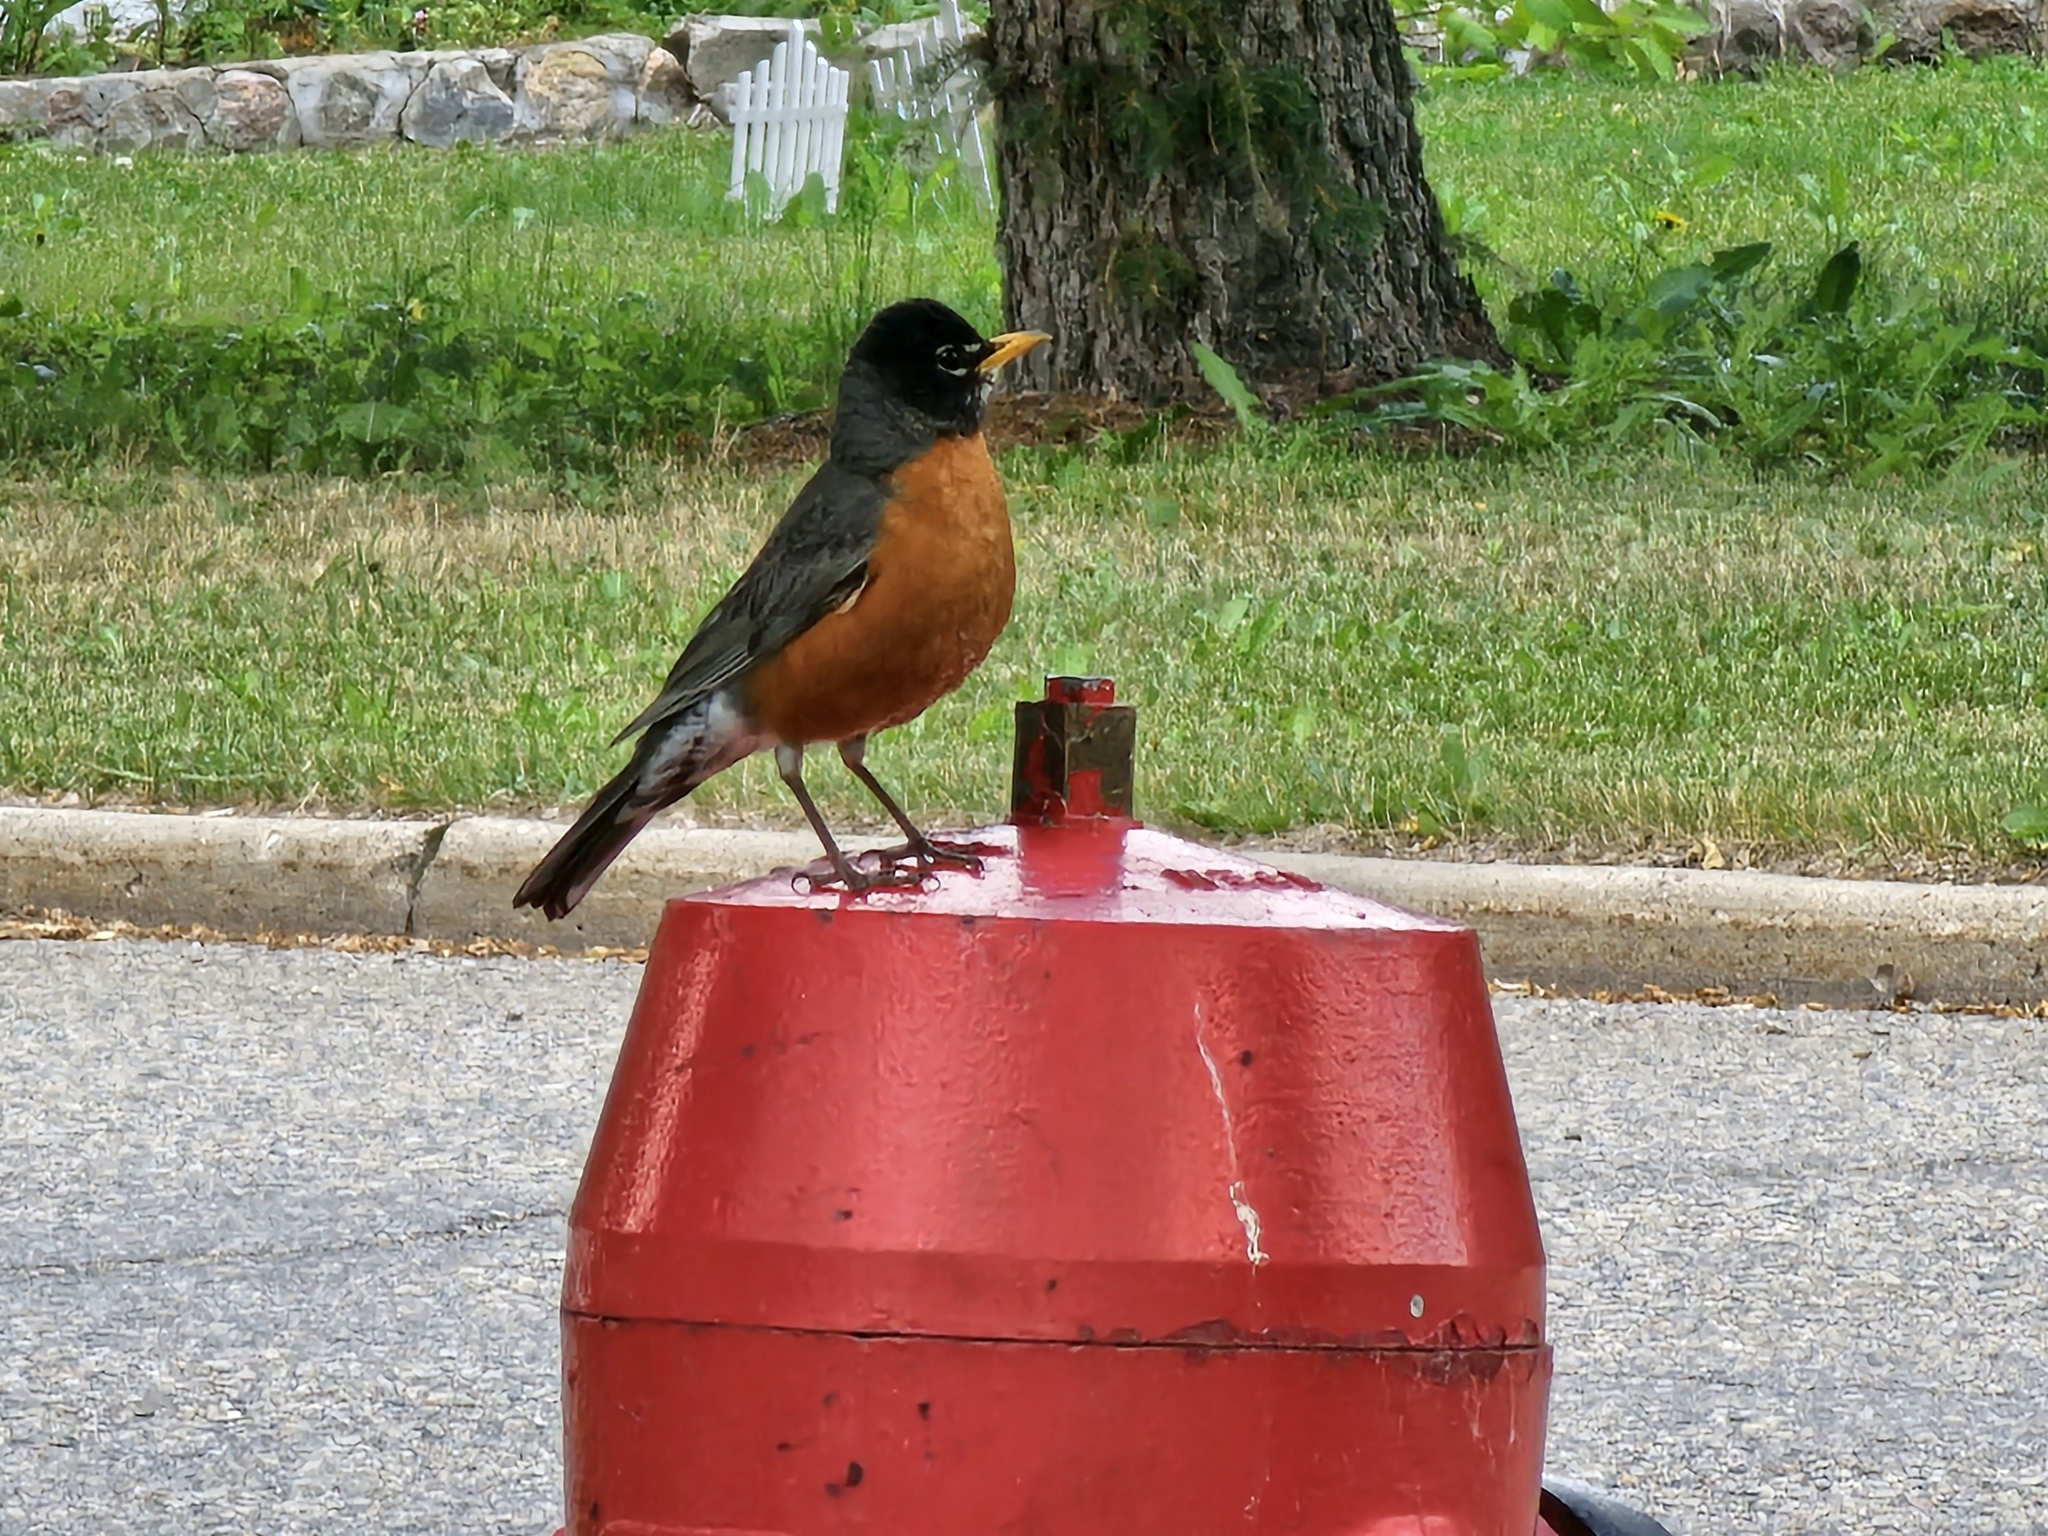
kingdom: Animalia
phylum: Chordata
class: Aves
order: Passeriformes
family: Turdidae
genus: Turdus
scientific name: Turdus migratorius
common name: American robin
